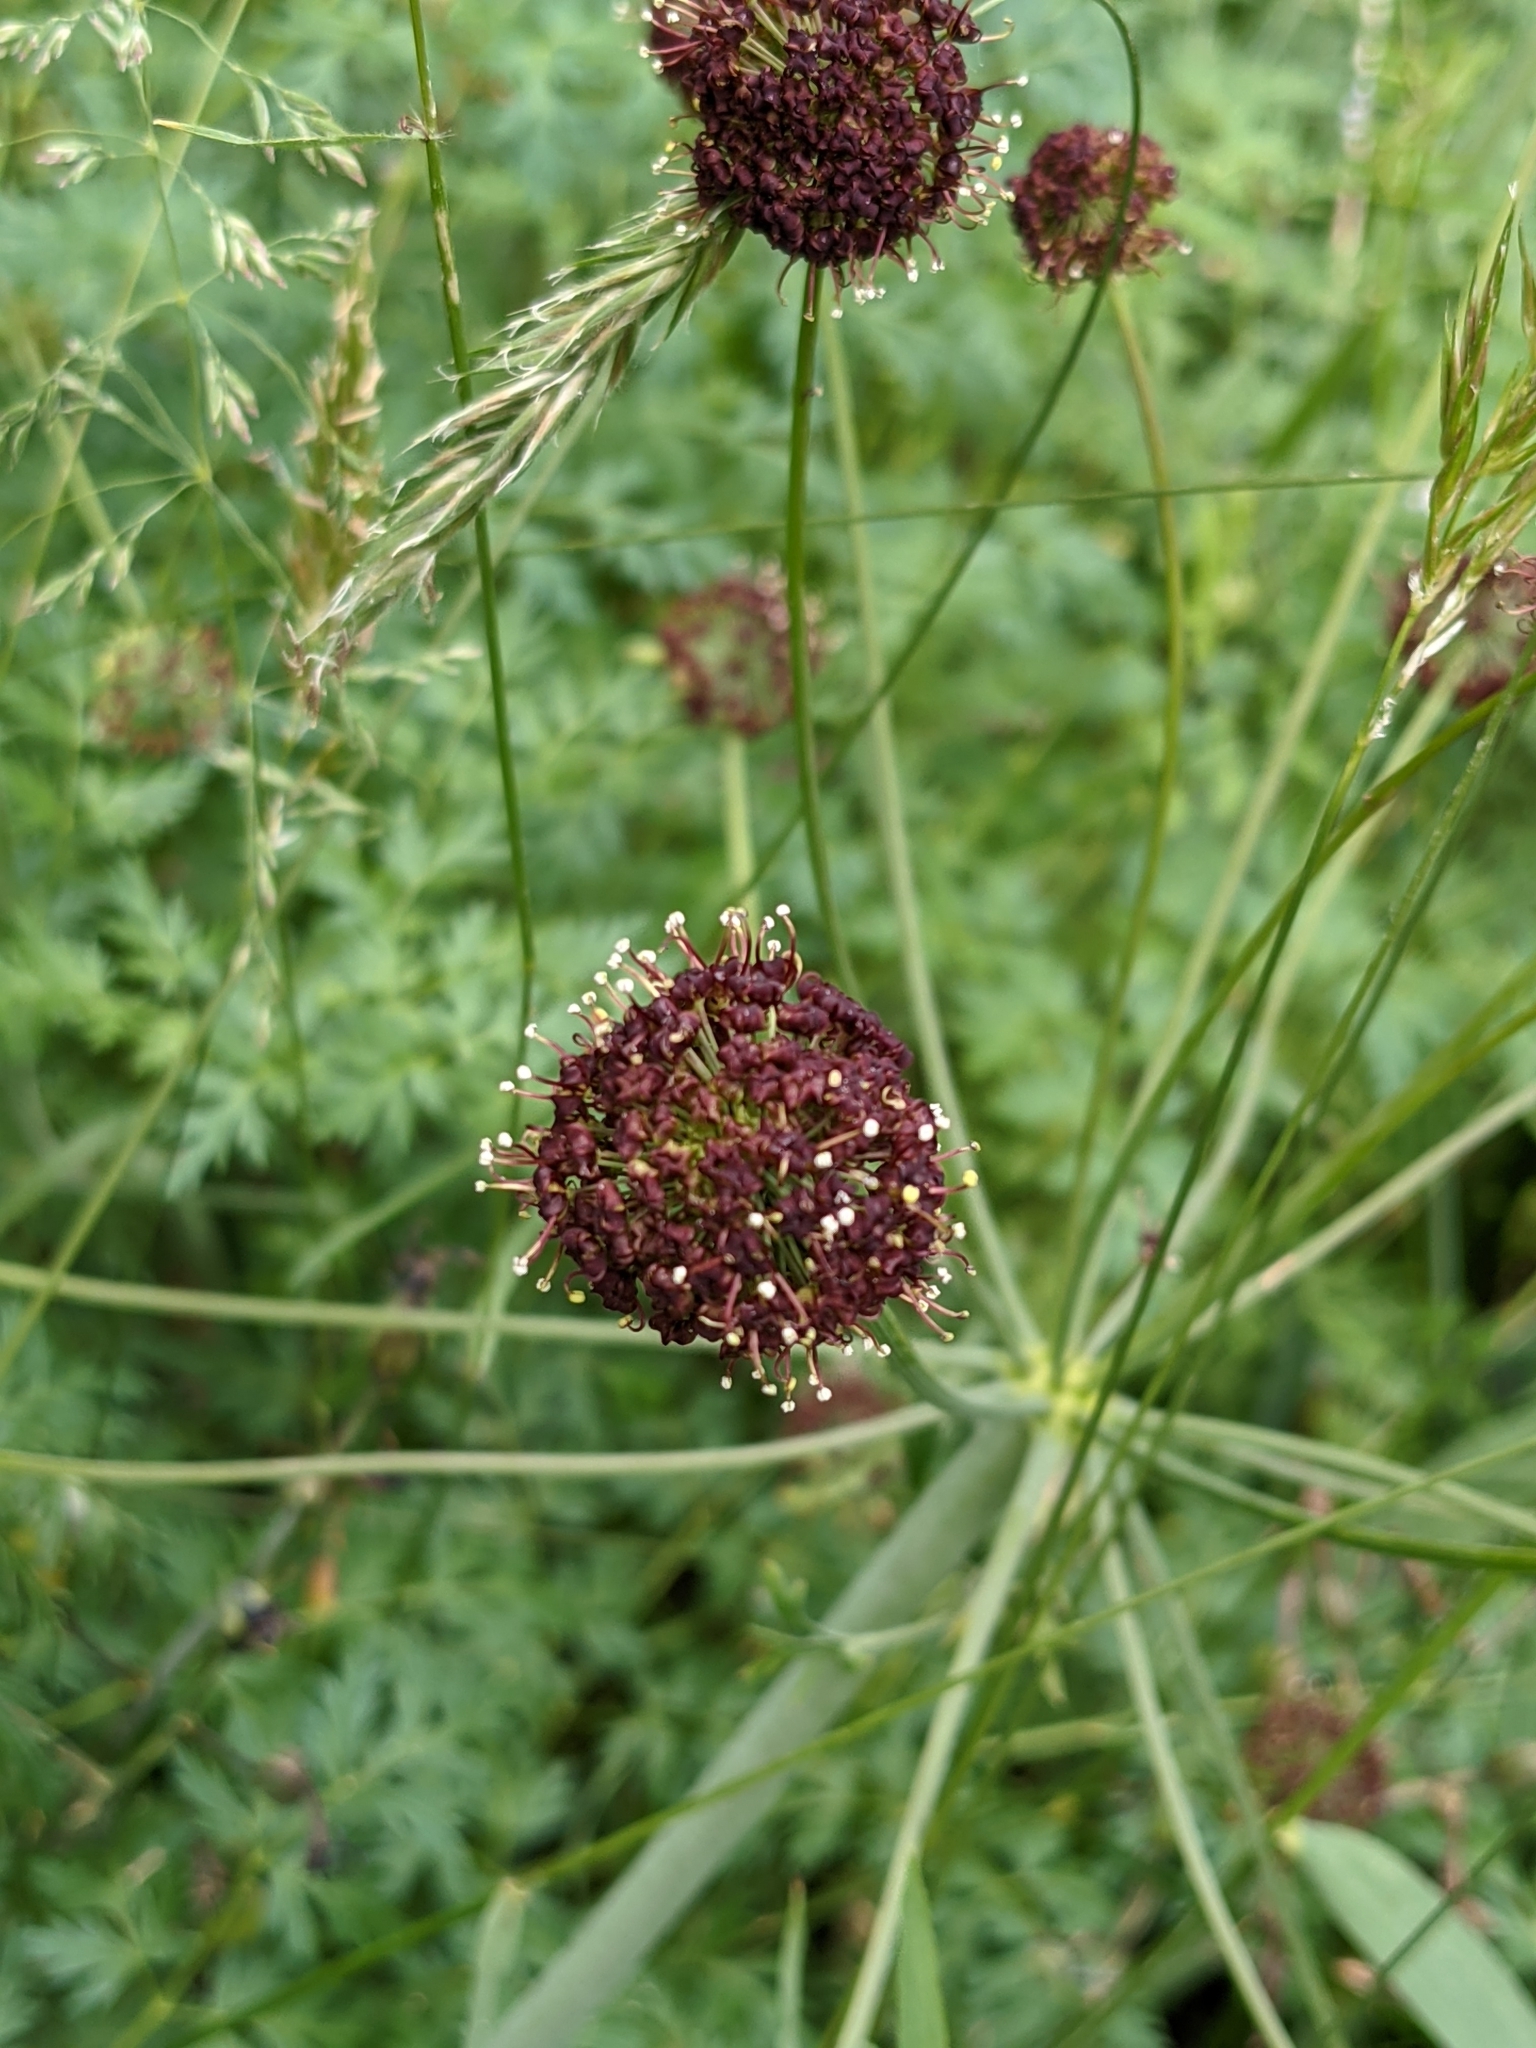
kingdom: Plantae
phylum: Tracheophyta
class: Magnoliopsida
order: Apiales
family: Apiaceae
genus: Lomatium
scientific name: Lomatium dissectum
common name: Lomatium
